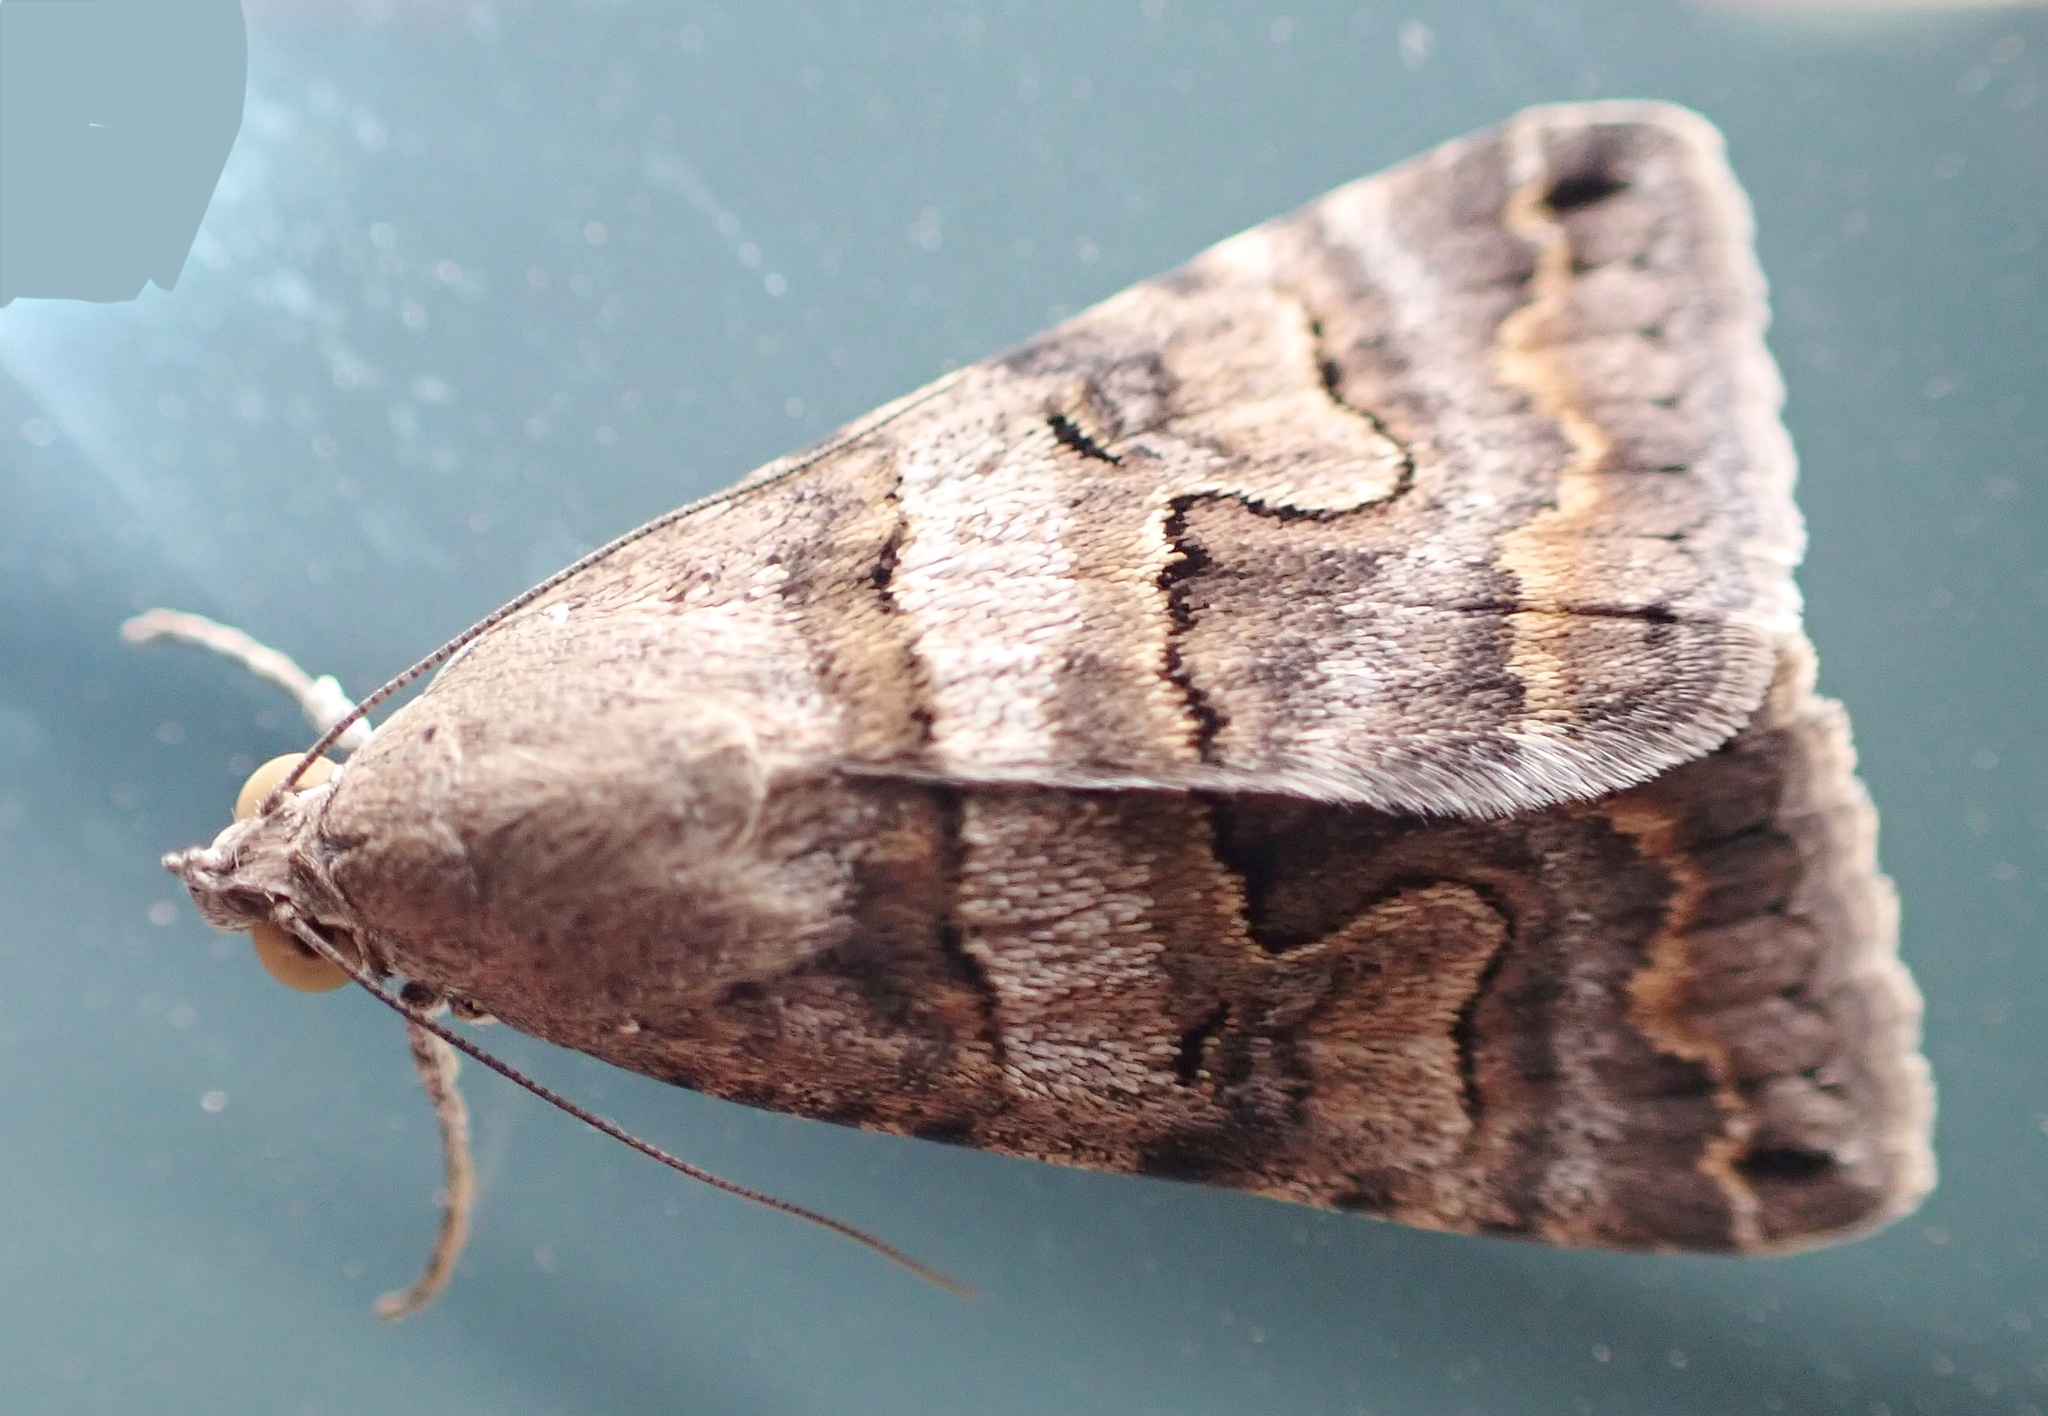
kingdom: Animalia
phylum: Arthropoda
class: Insecta
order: Lepidoptera
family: Erebidae
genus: Bulia
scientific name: Bulia deducta
